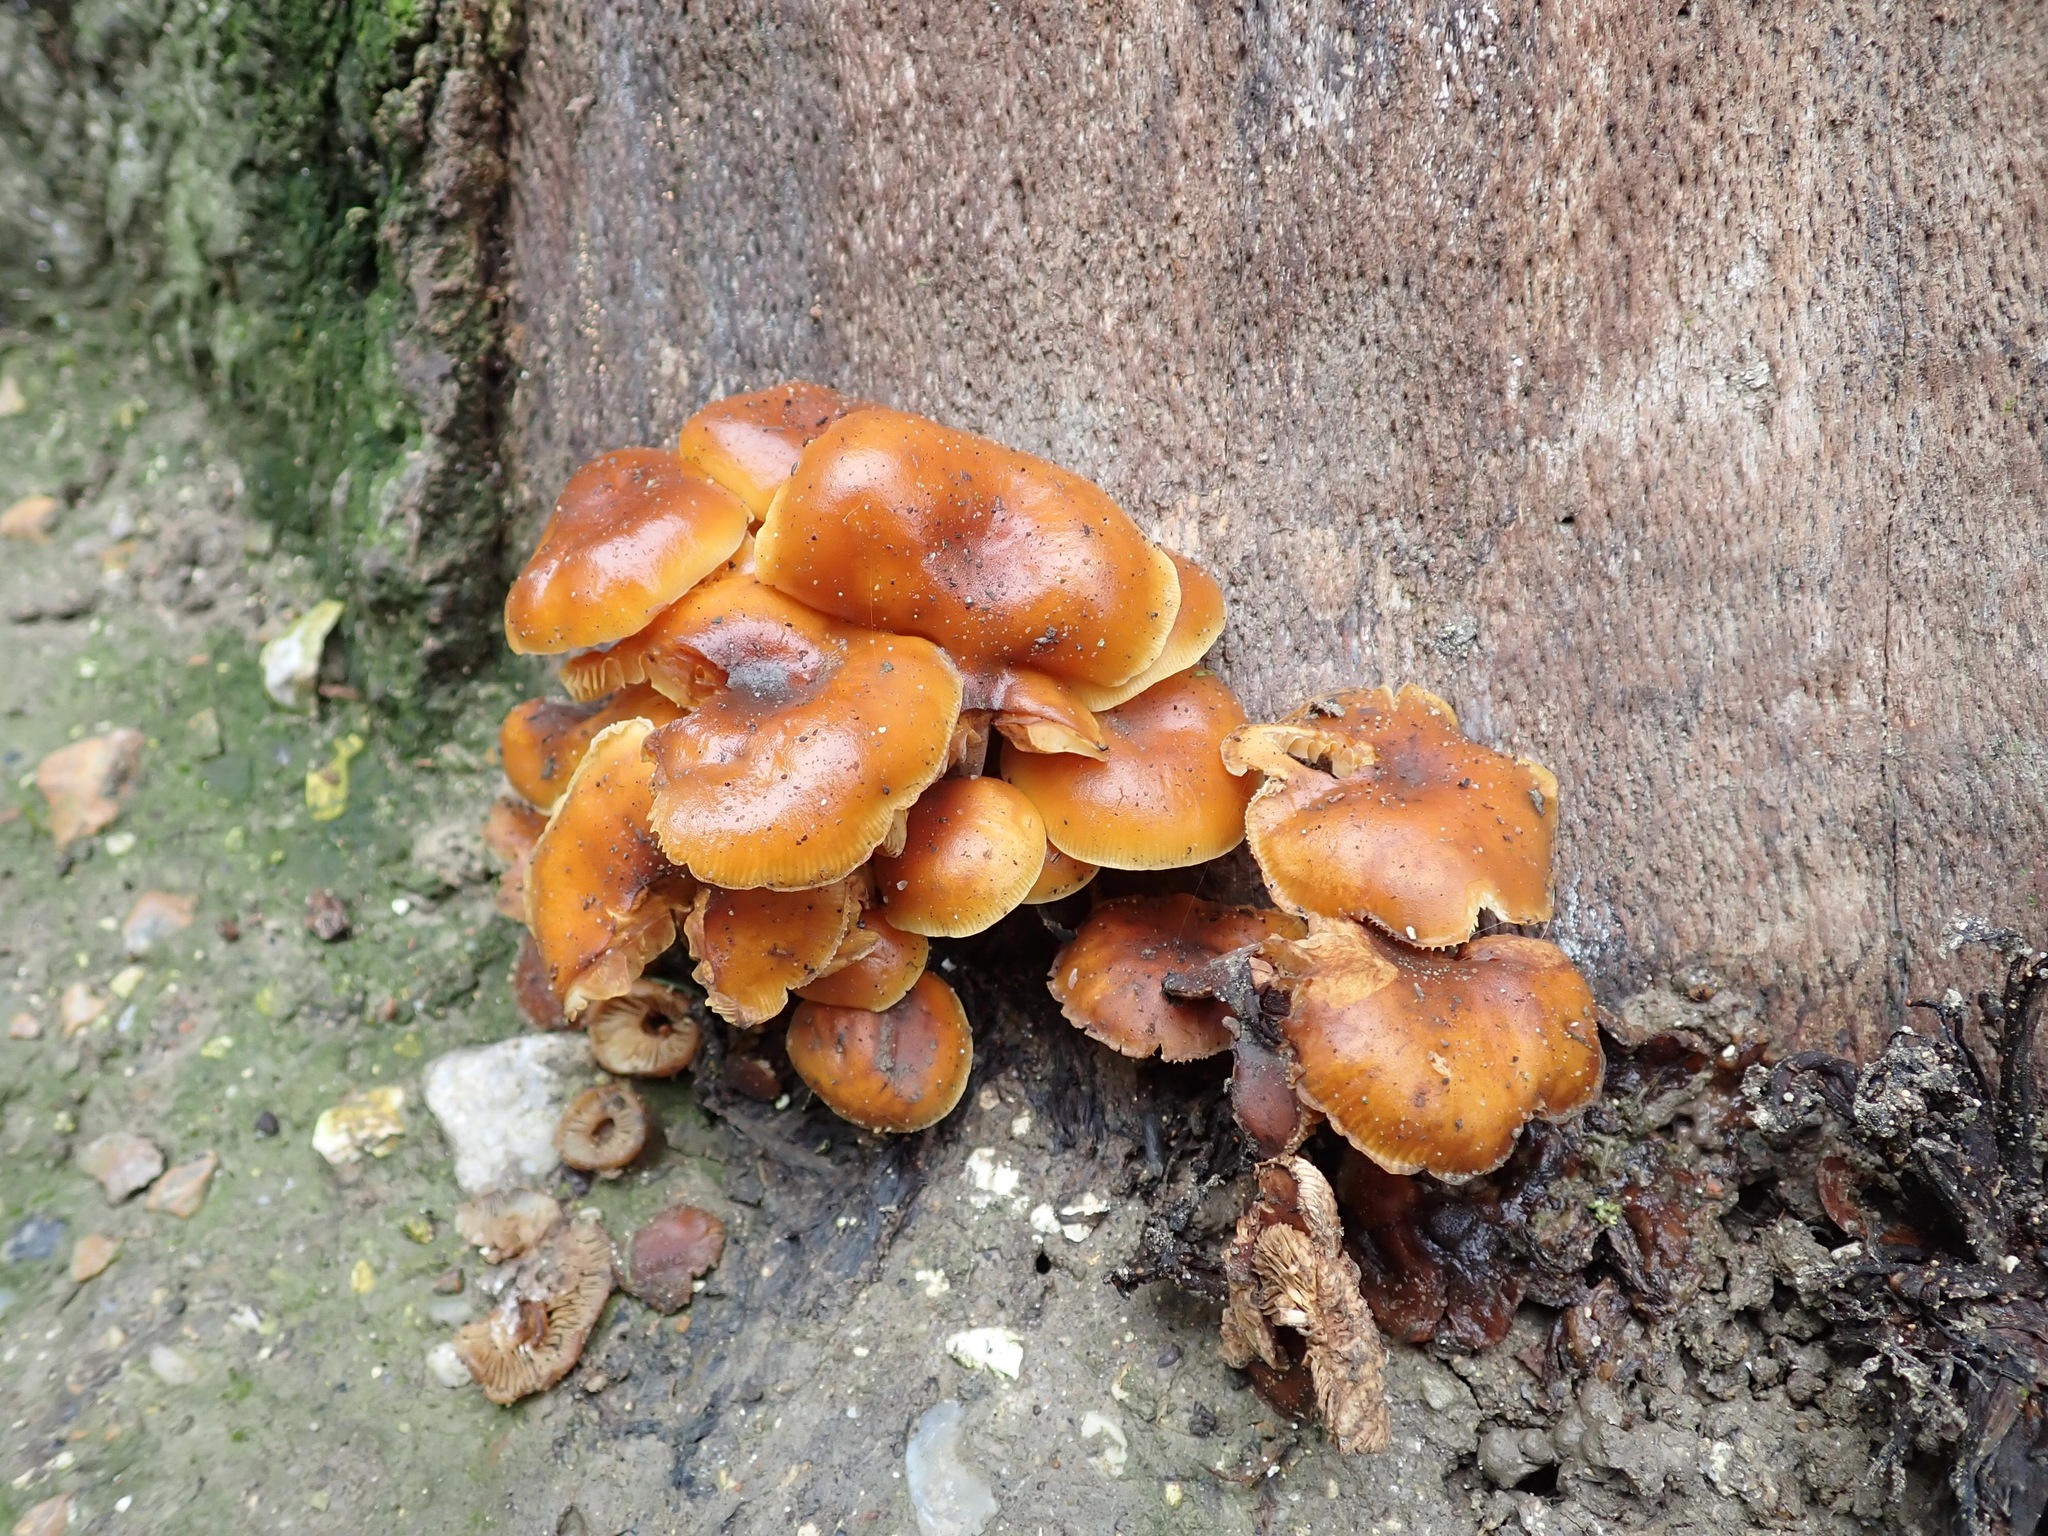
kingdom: Fungi
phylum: Basidiomycota
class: Agaricomycetes
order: Agaricales
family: Physalacriaceae
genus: Flammulina
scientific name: Flammulina
